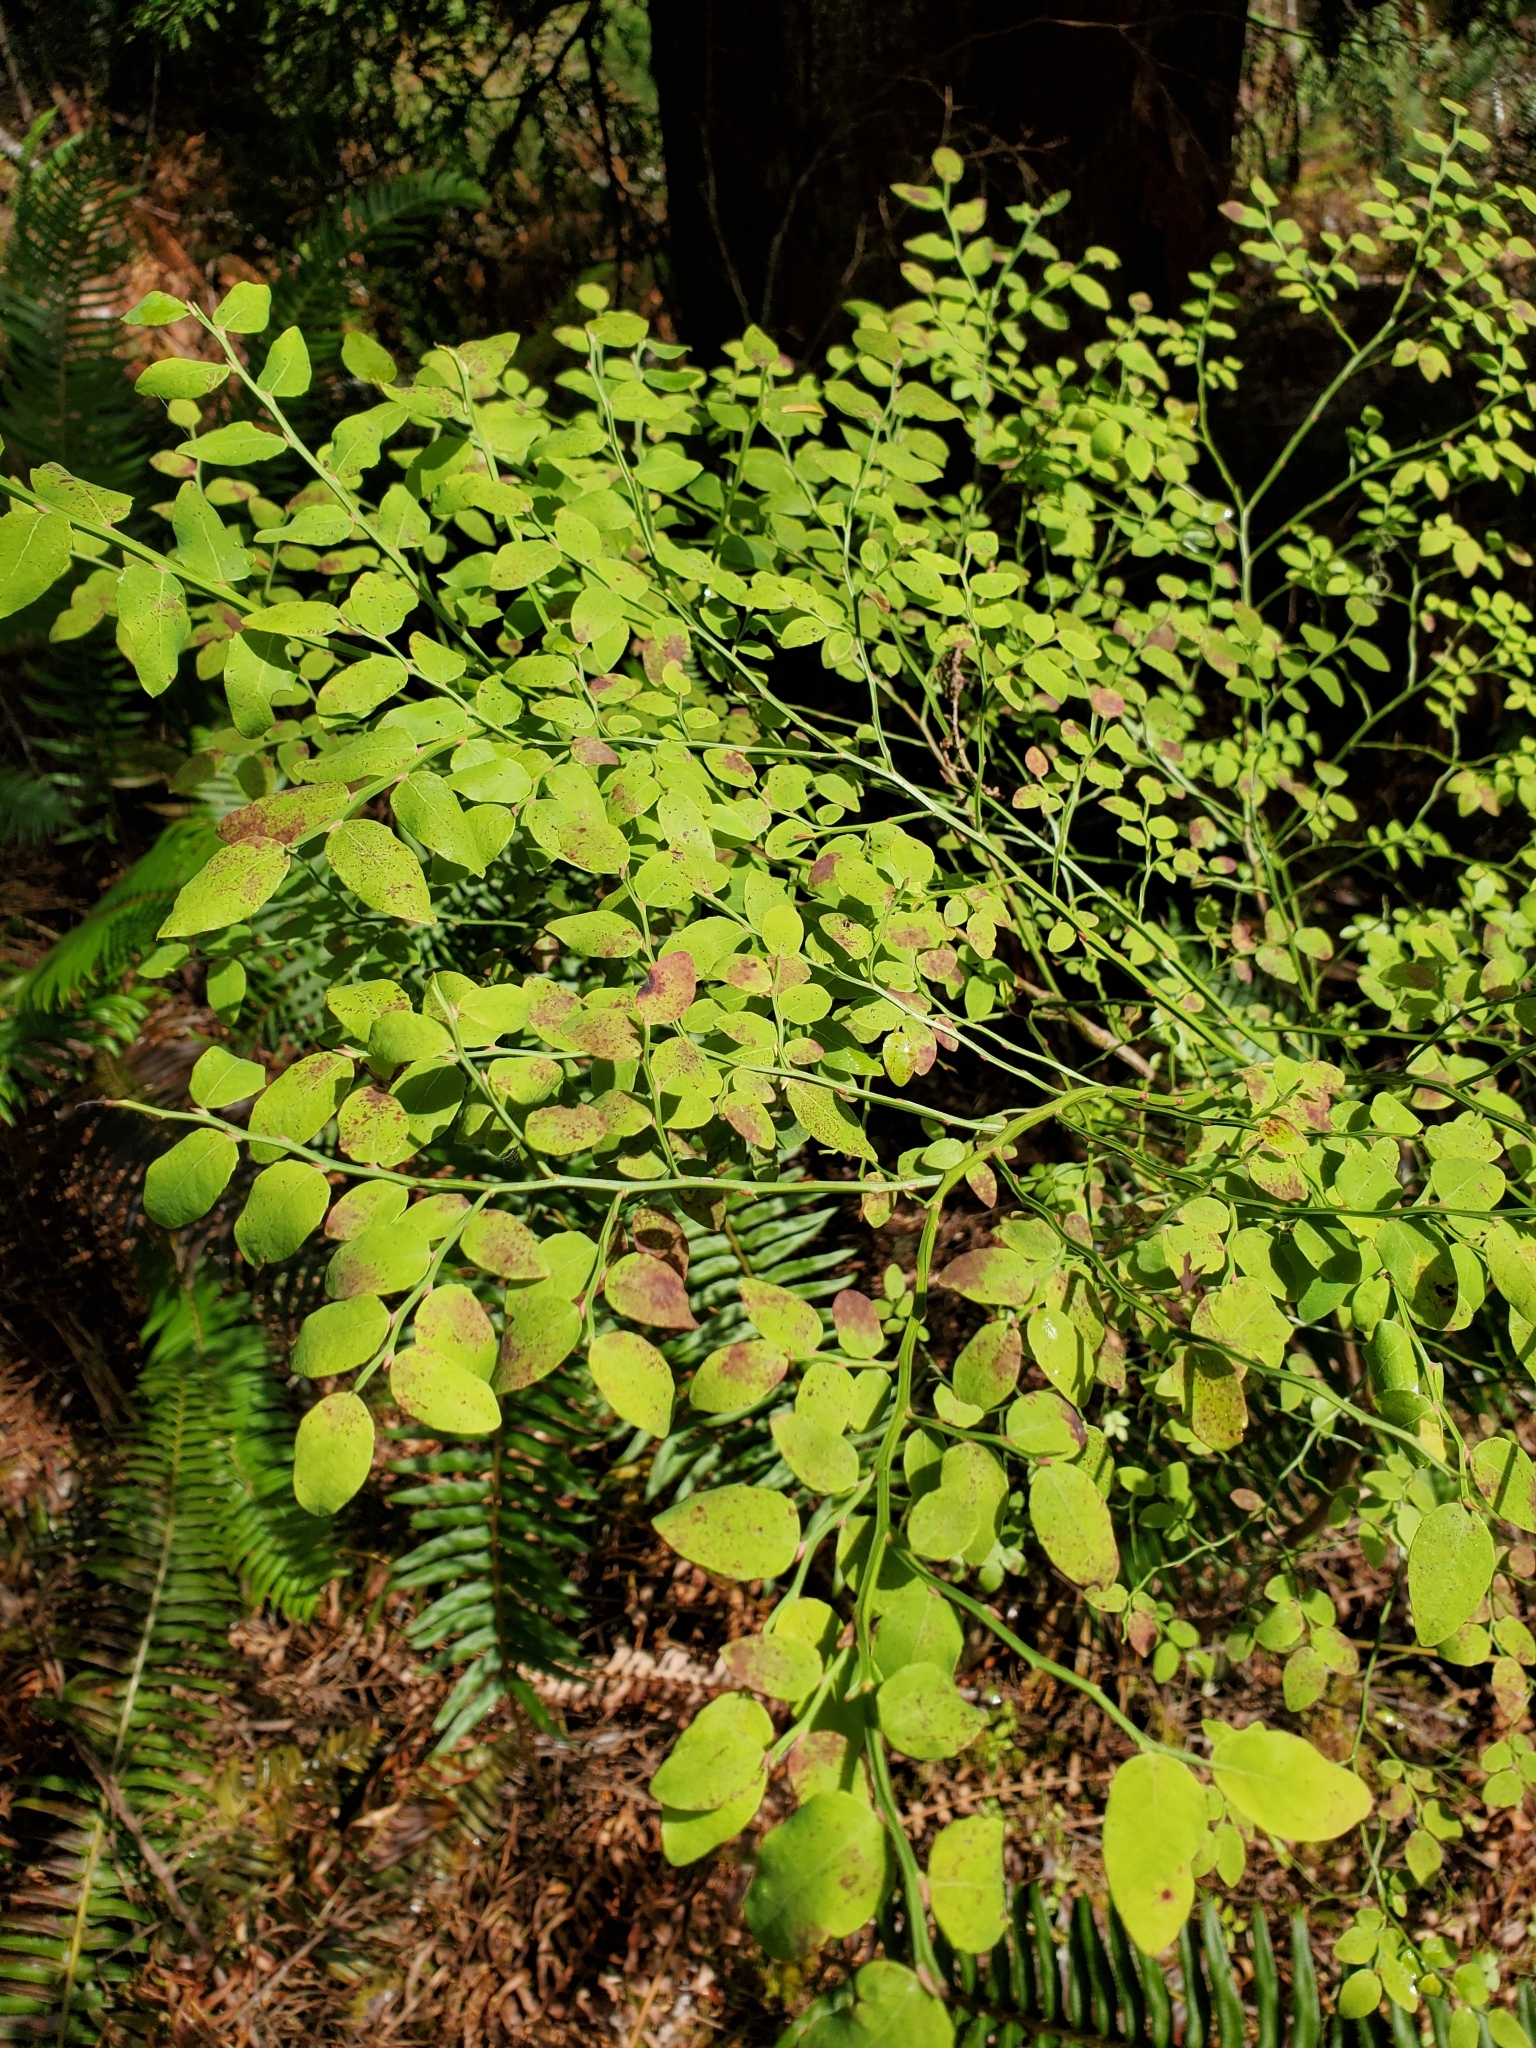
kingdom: Plantae
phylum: Tracheophyta
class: Magnoliopsida
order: Ericales
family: Ericaceae
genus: Vaccinium
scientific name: Vaccinium parvifolium
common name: Red-huckleberry
